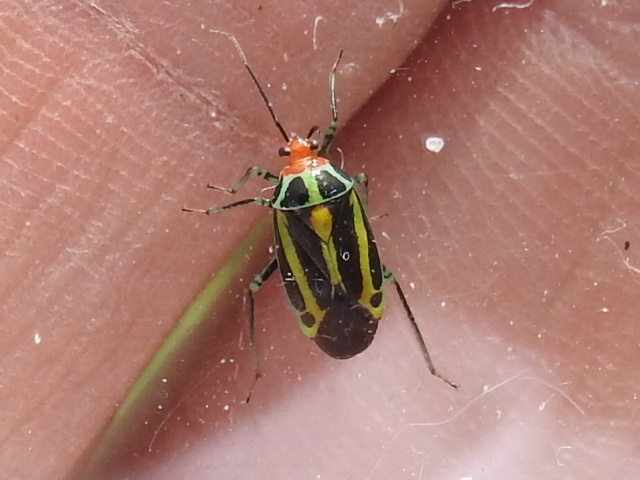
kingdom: Animalia
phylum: Arthropoda
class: Insecta
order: Hemiptera
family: Miridae
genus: Poecilocapsus
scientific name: Poecilocapsus lineatus
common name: Four-lined plant bug
